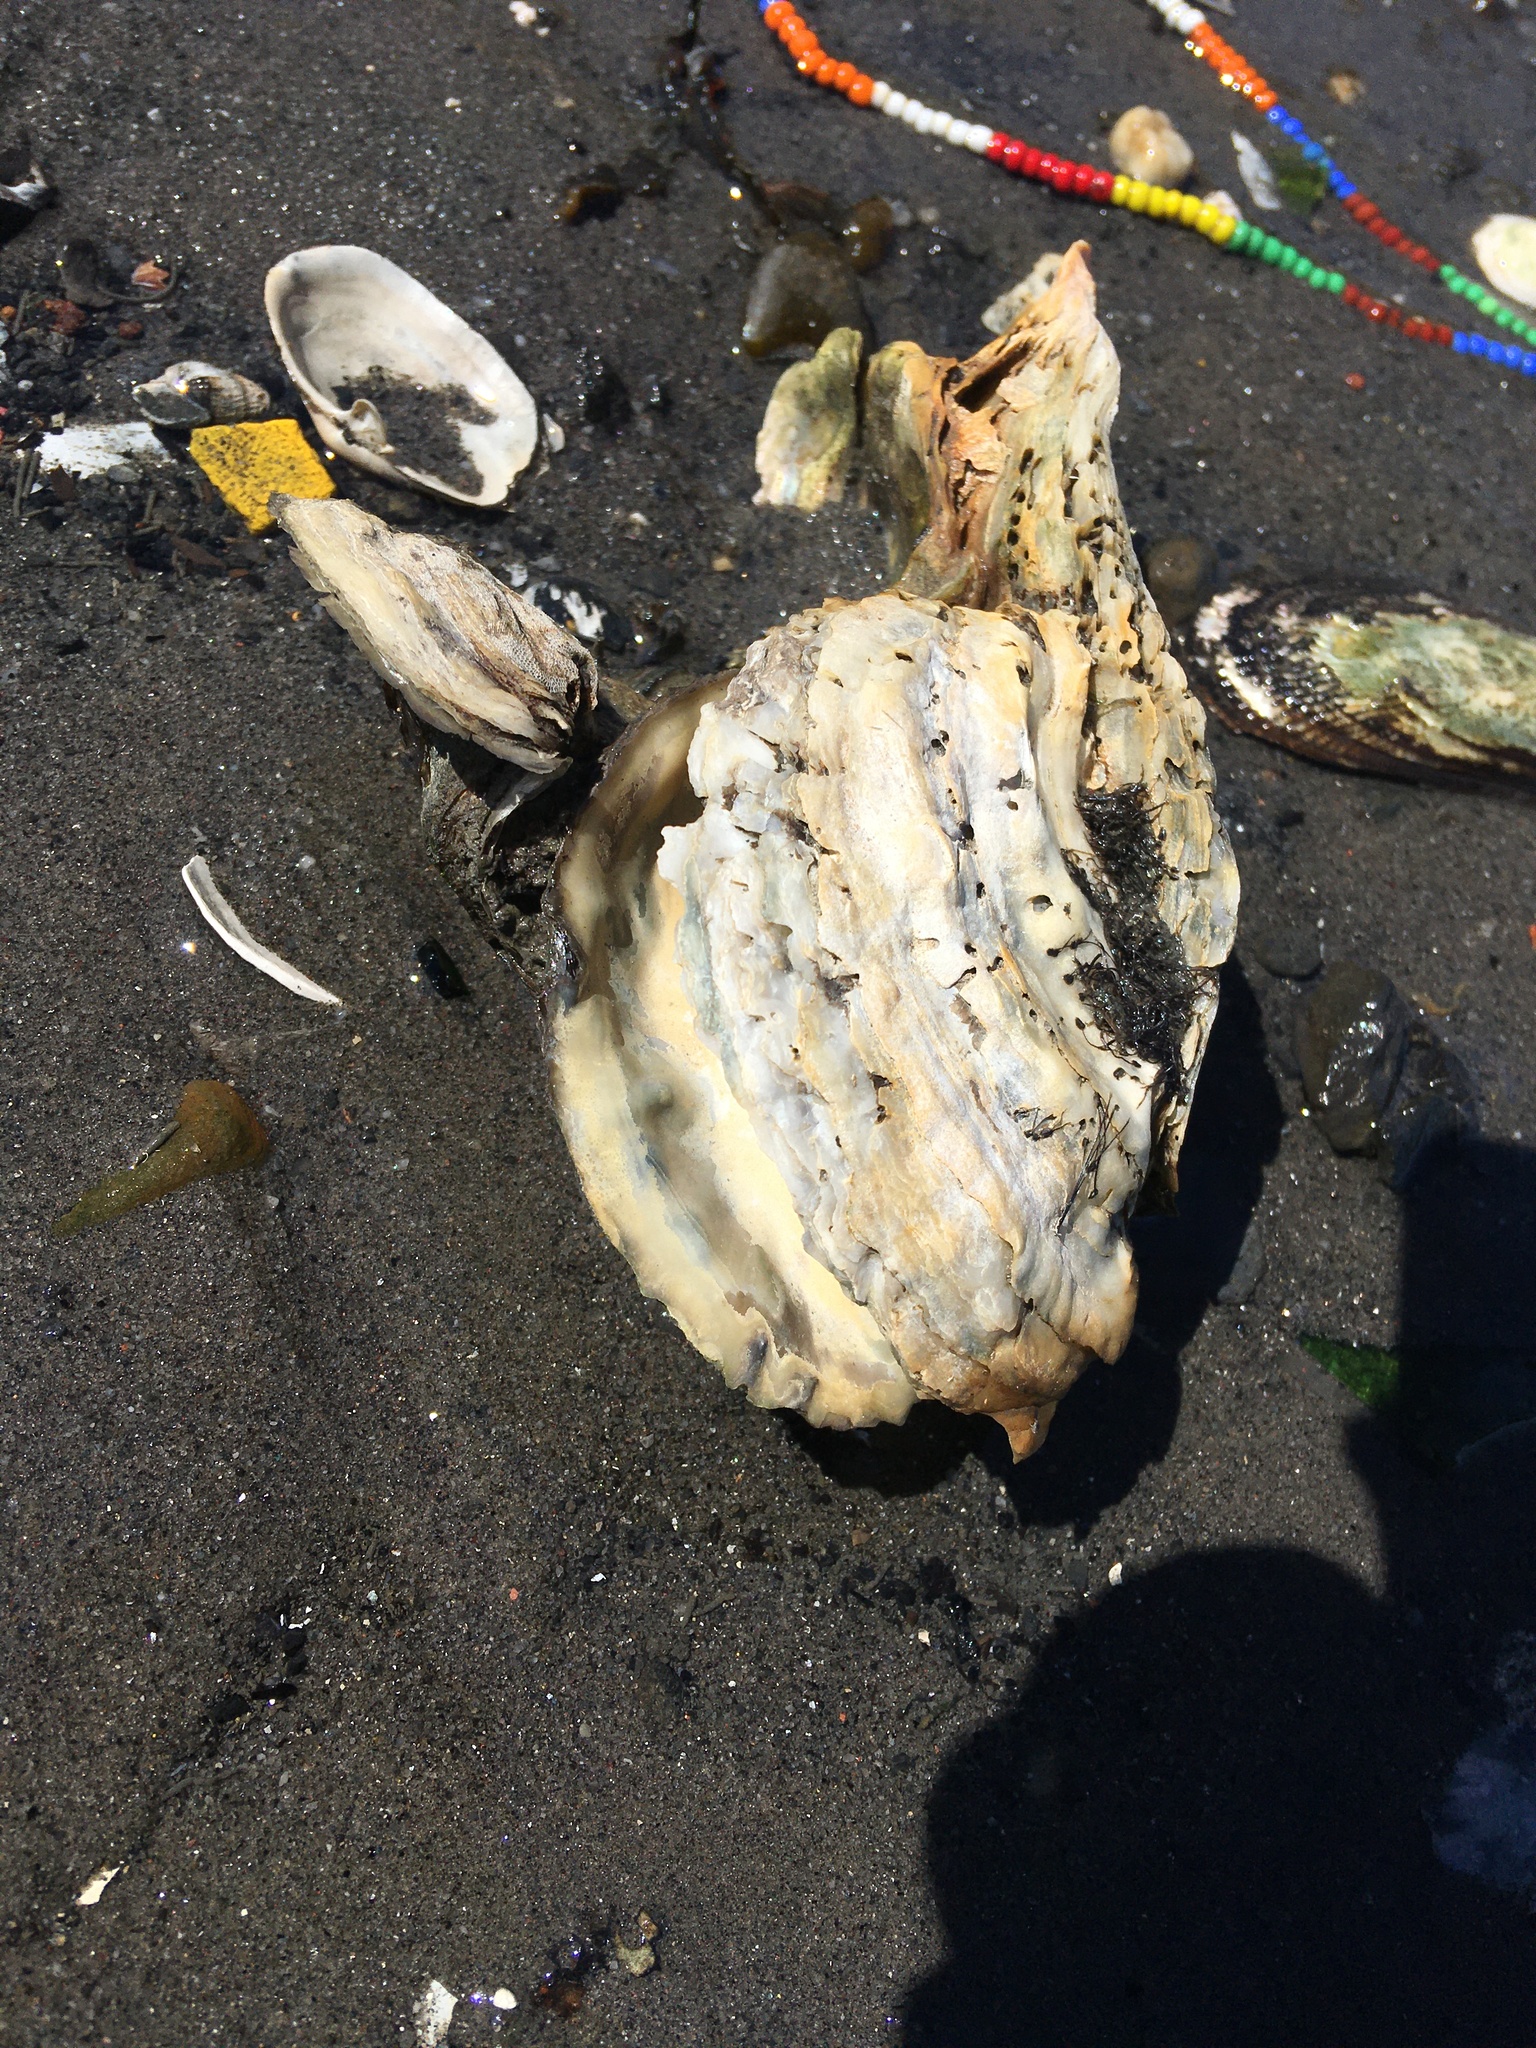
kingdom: Animalia
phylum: Mollusca
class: Bivalvia
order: Ostreida
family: Ostreidae
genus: Crassostrea
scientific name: Crassostrea virginica
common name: American oyster
